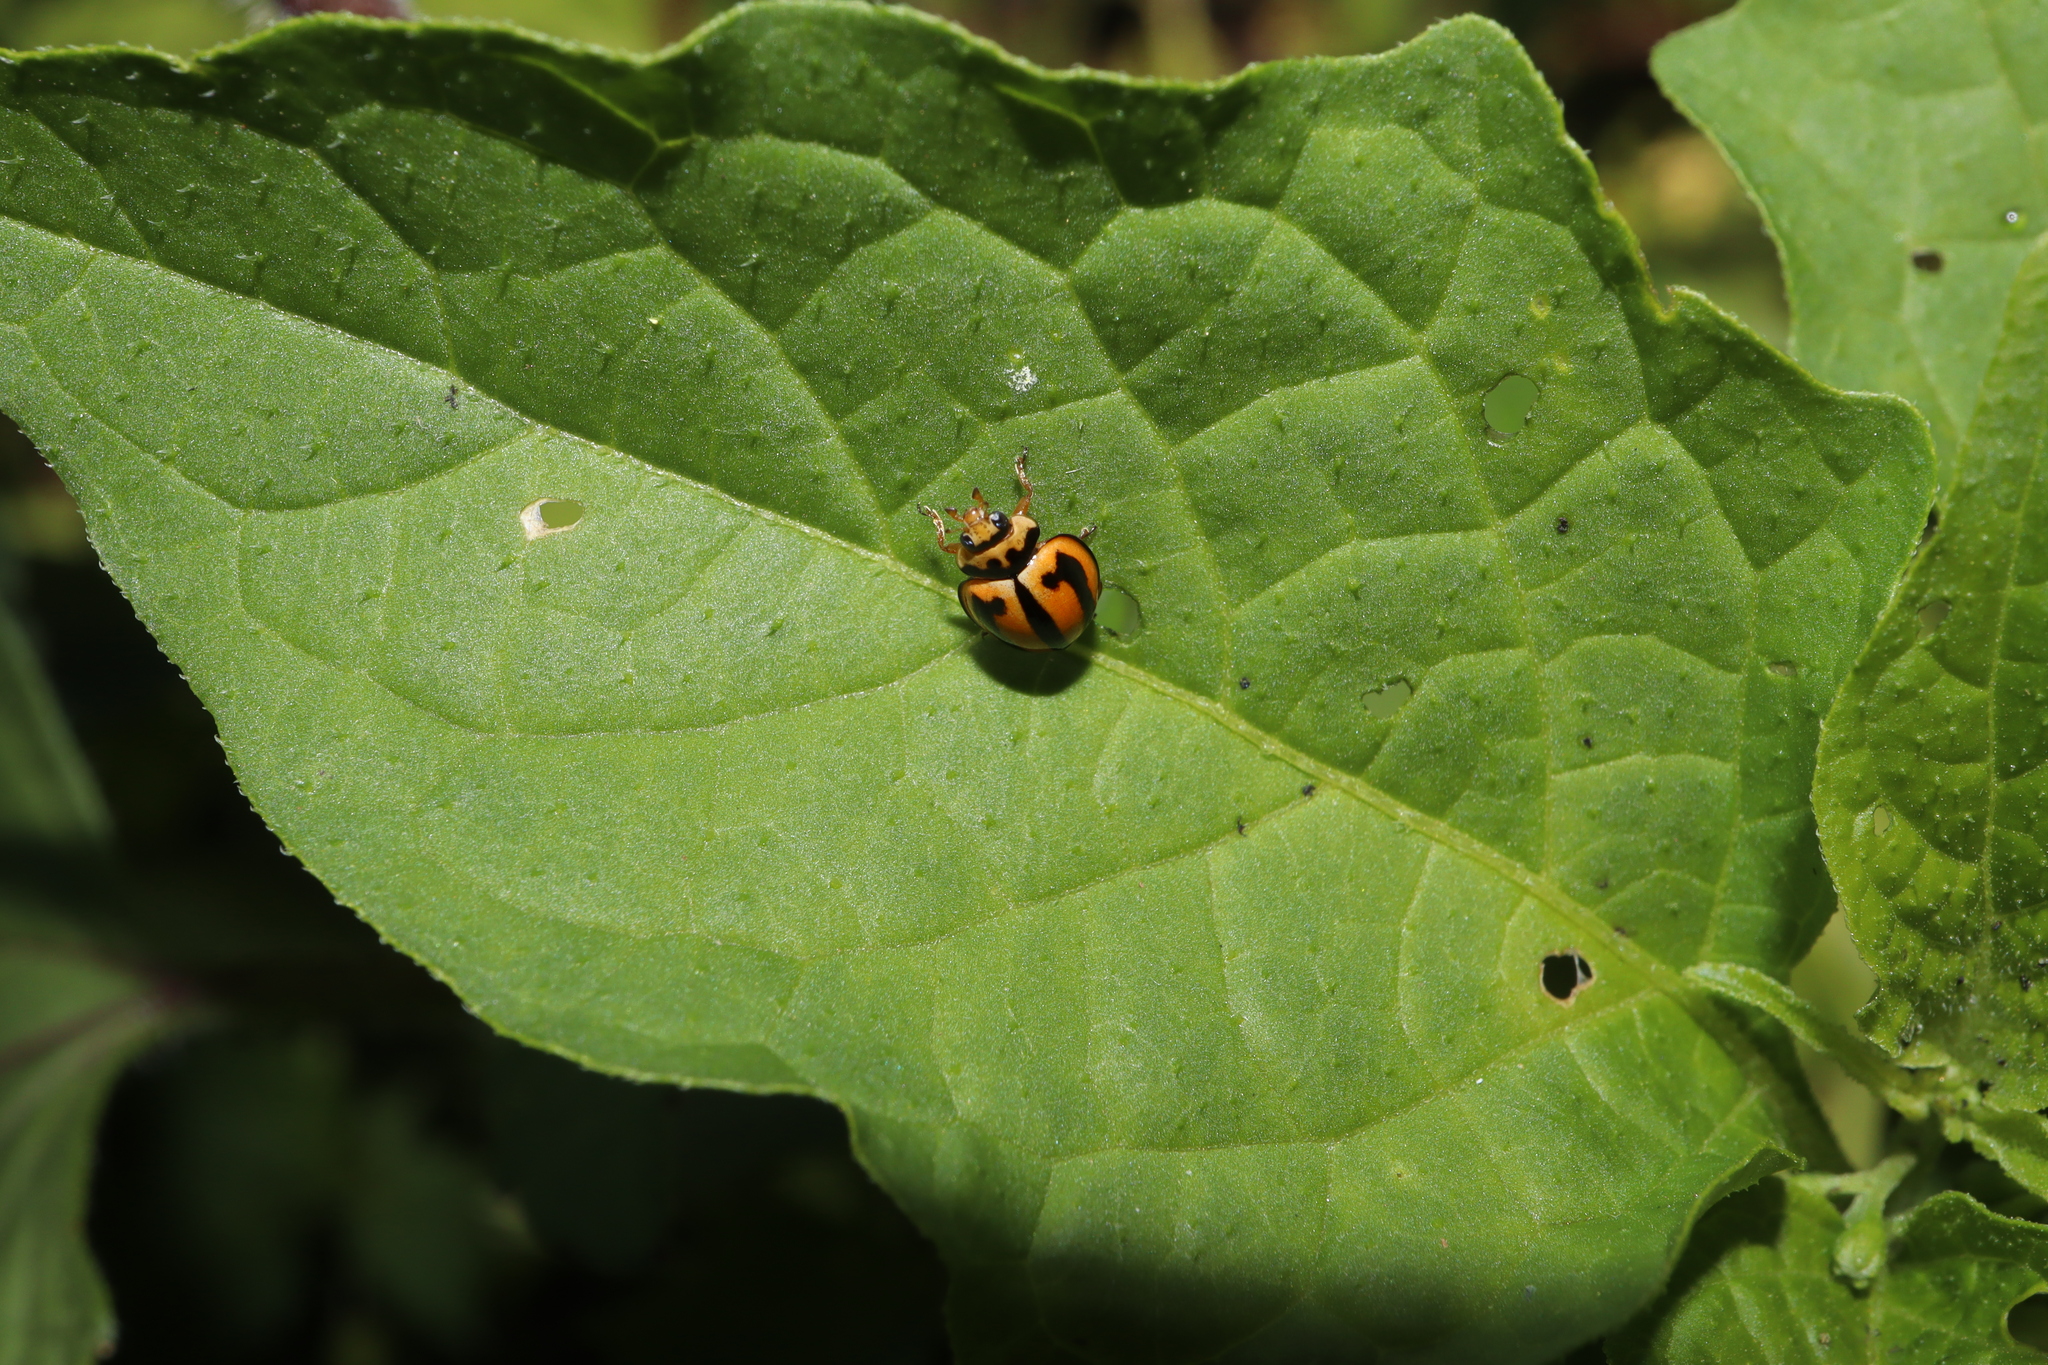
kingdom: Animalia
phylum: Arthropoda
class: Insecta
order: Coleoptera
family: Coccinellidae
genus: Micraspis
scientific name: Micraspis frenata
